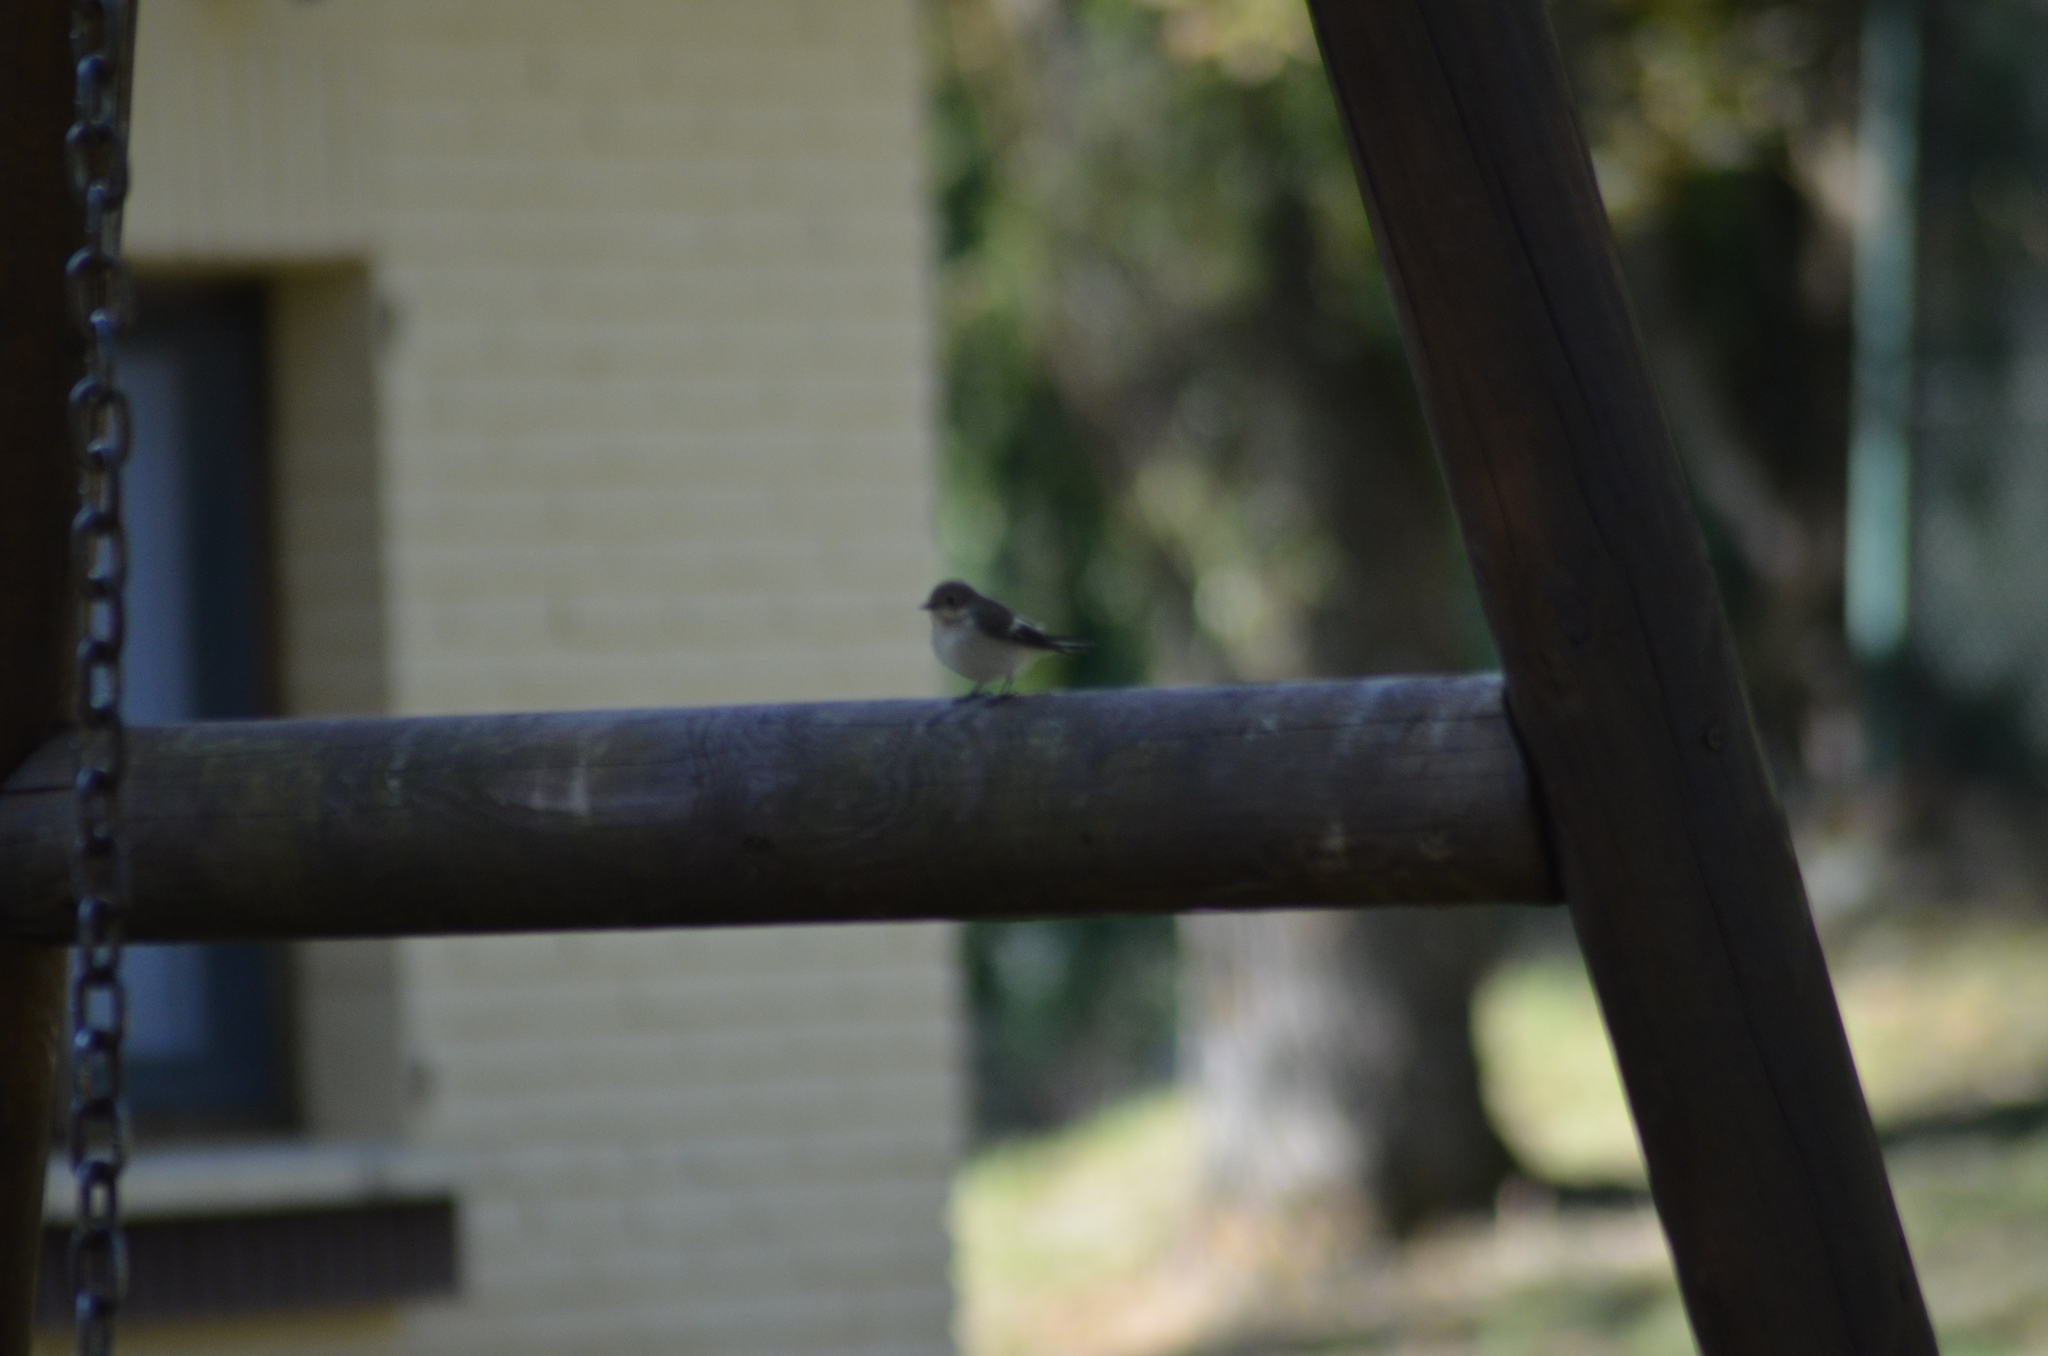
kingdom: Animalia
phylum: Chordata
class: Aves
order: Passeriformes
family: Muscicapidae
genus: Ficedula
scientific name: Ficedula hypoleuca
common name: European pied flycatcher
